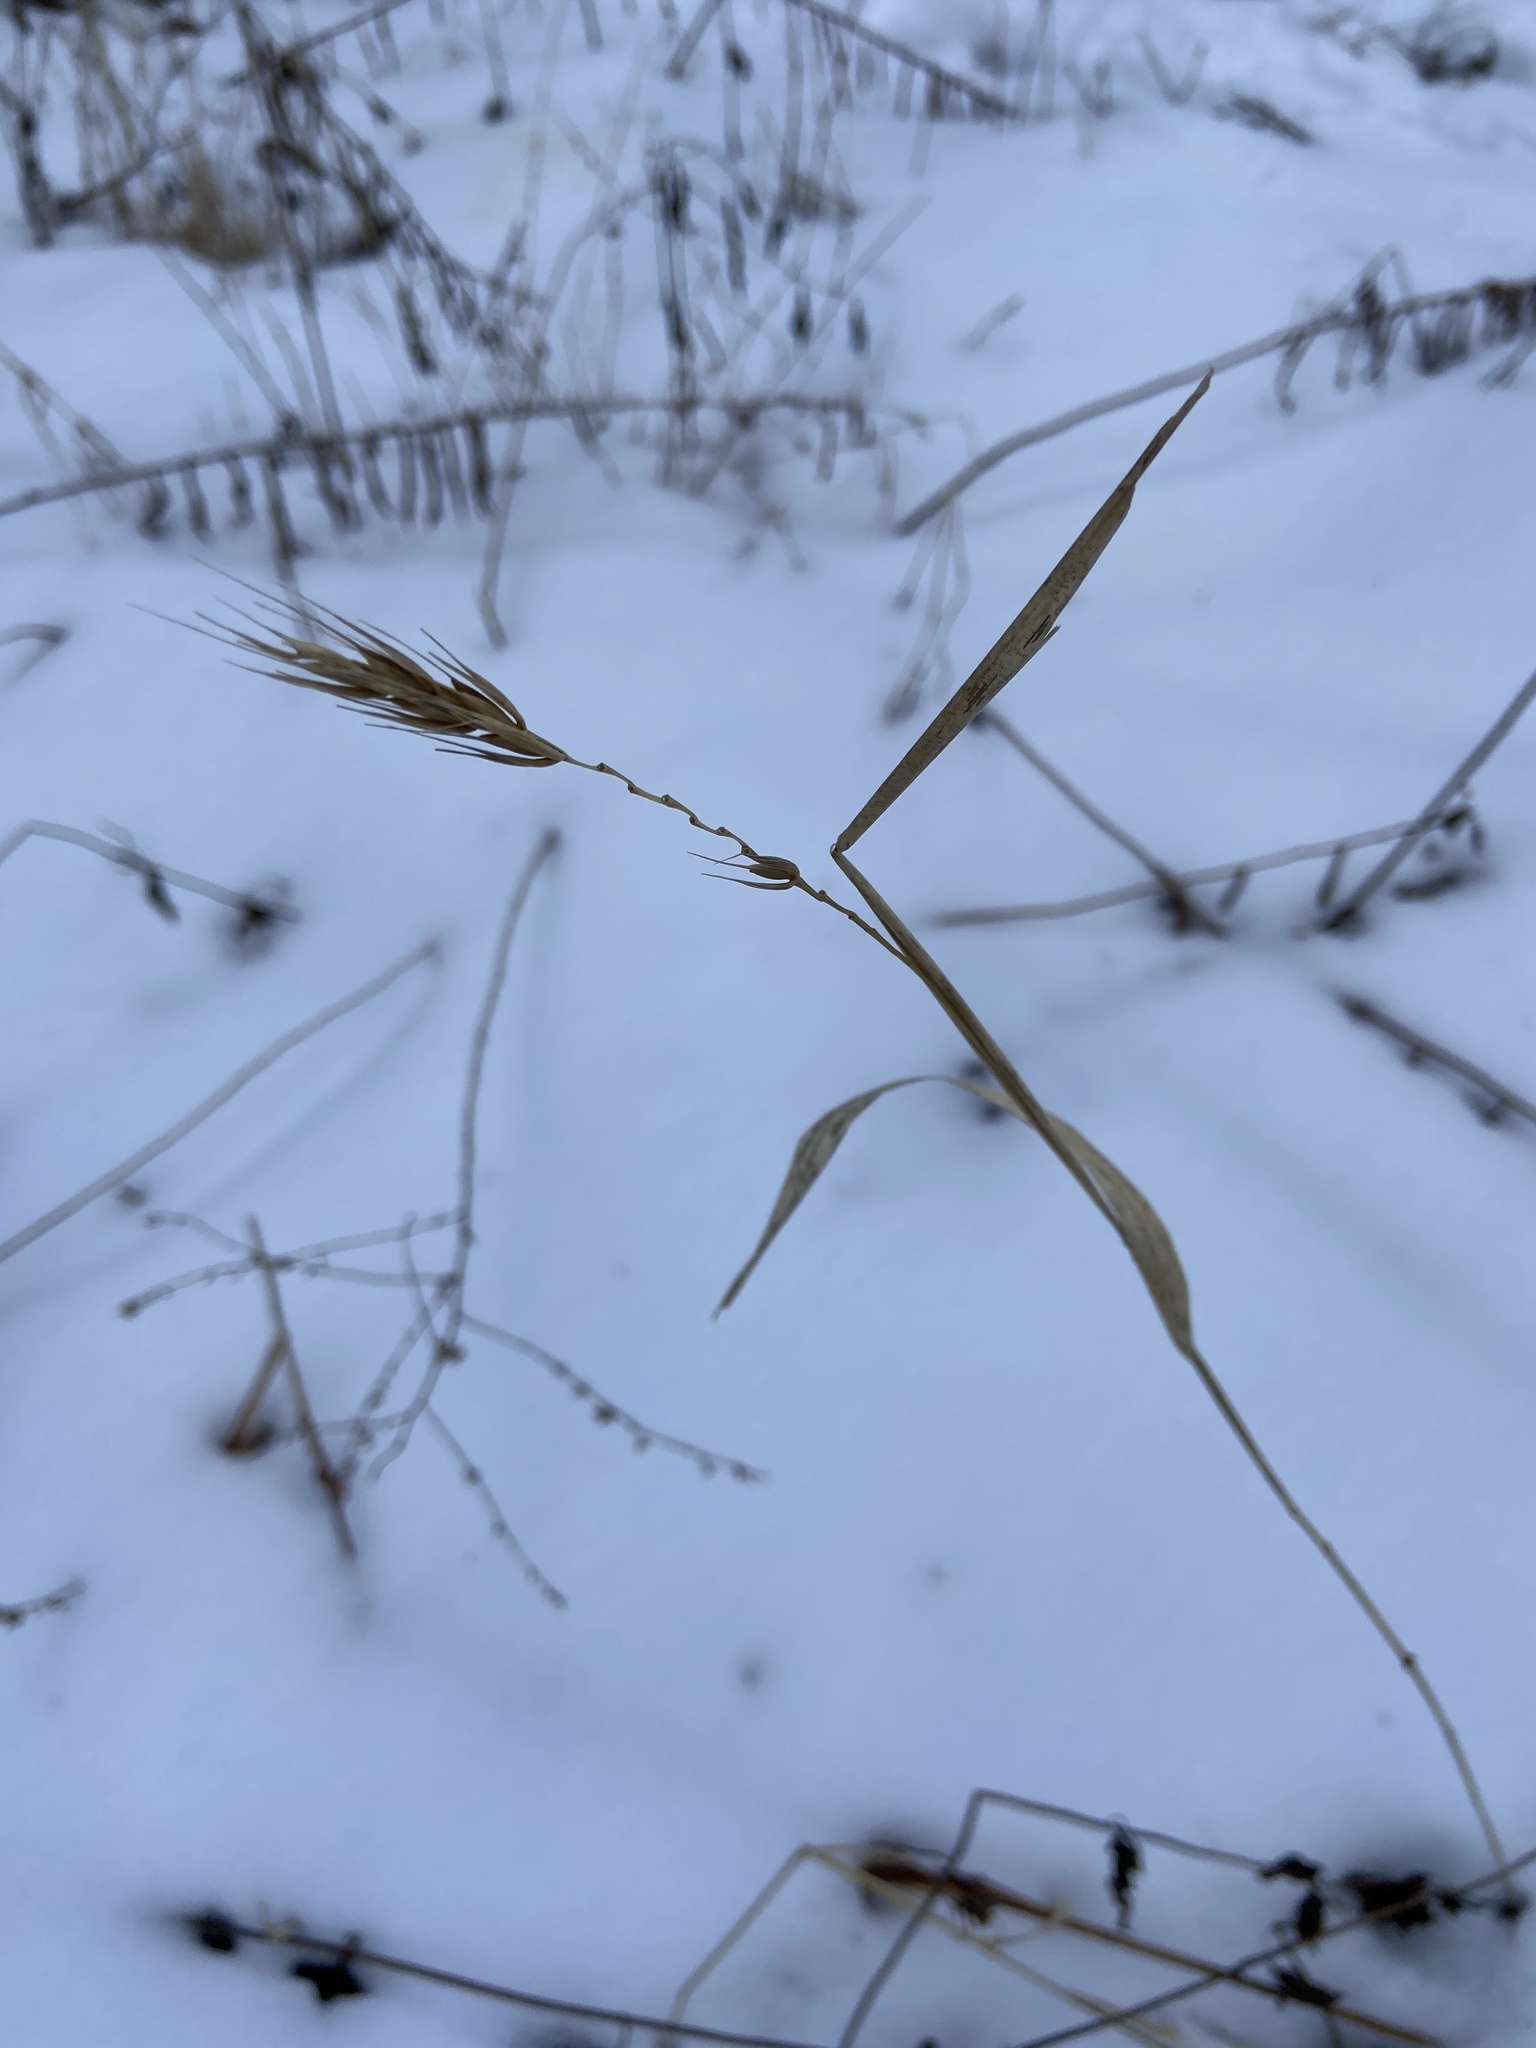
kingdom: Plantae
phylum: Tracheophyta
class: Liliopsida
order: Poales
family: Poaceae
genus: Elymus
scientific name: Elymus virginicus
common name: Common eastern wildrye
